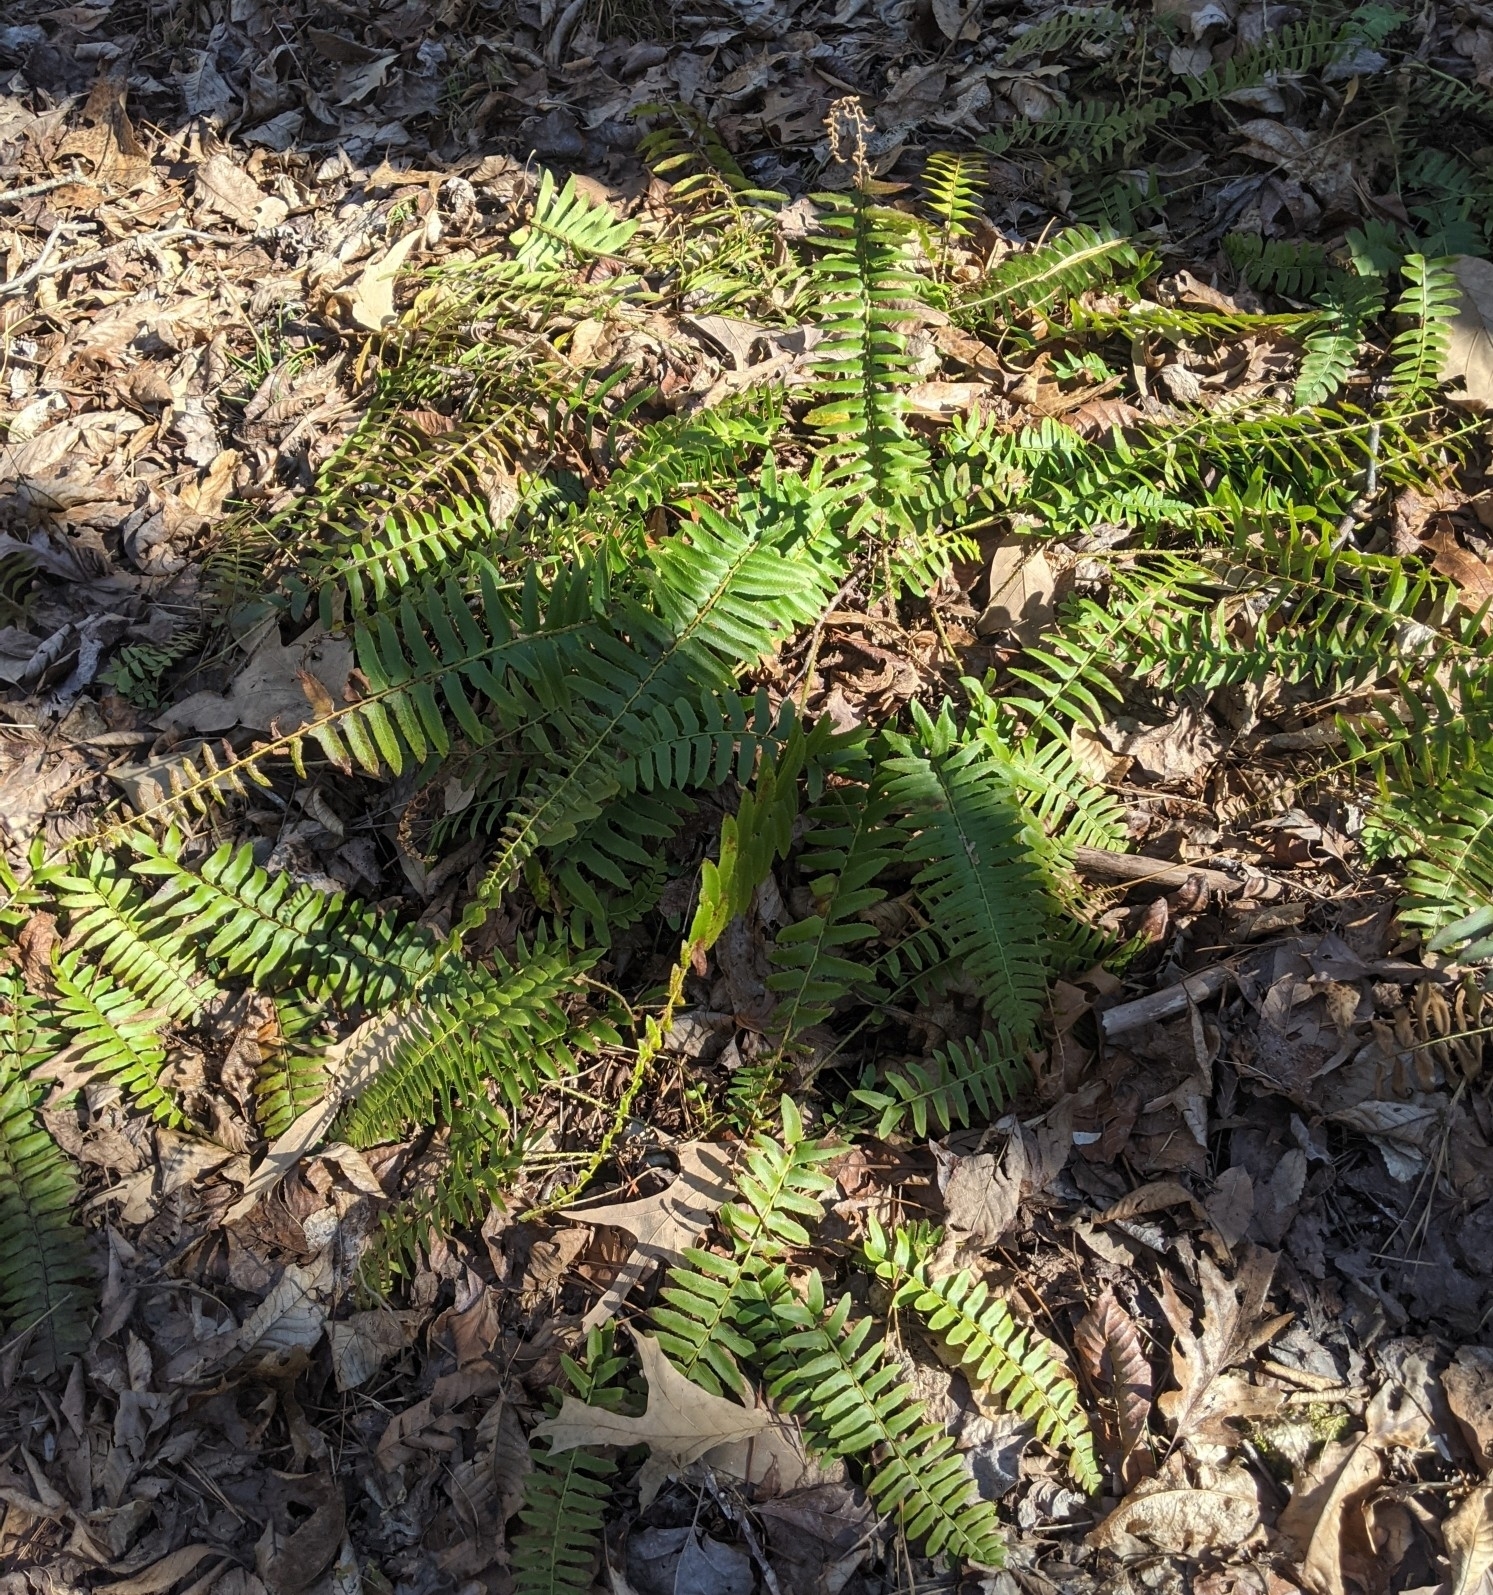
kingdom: Plantae
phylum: Tracheophyta
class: Polypodiopsida
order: Polypodiales
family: Dryopteridaceae
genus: Polystichum
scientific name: Polystichum acrostichoides
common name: Christmas fern
